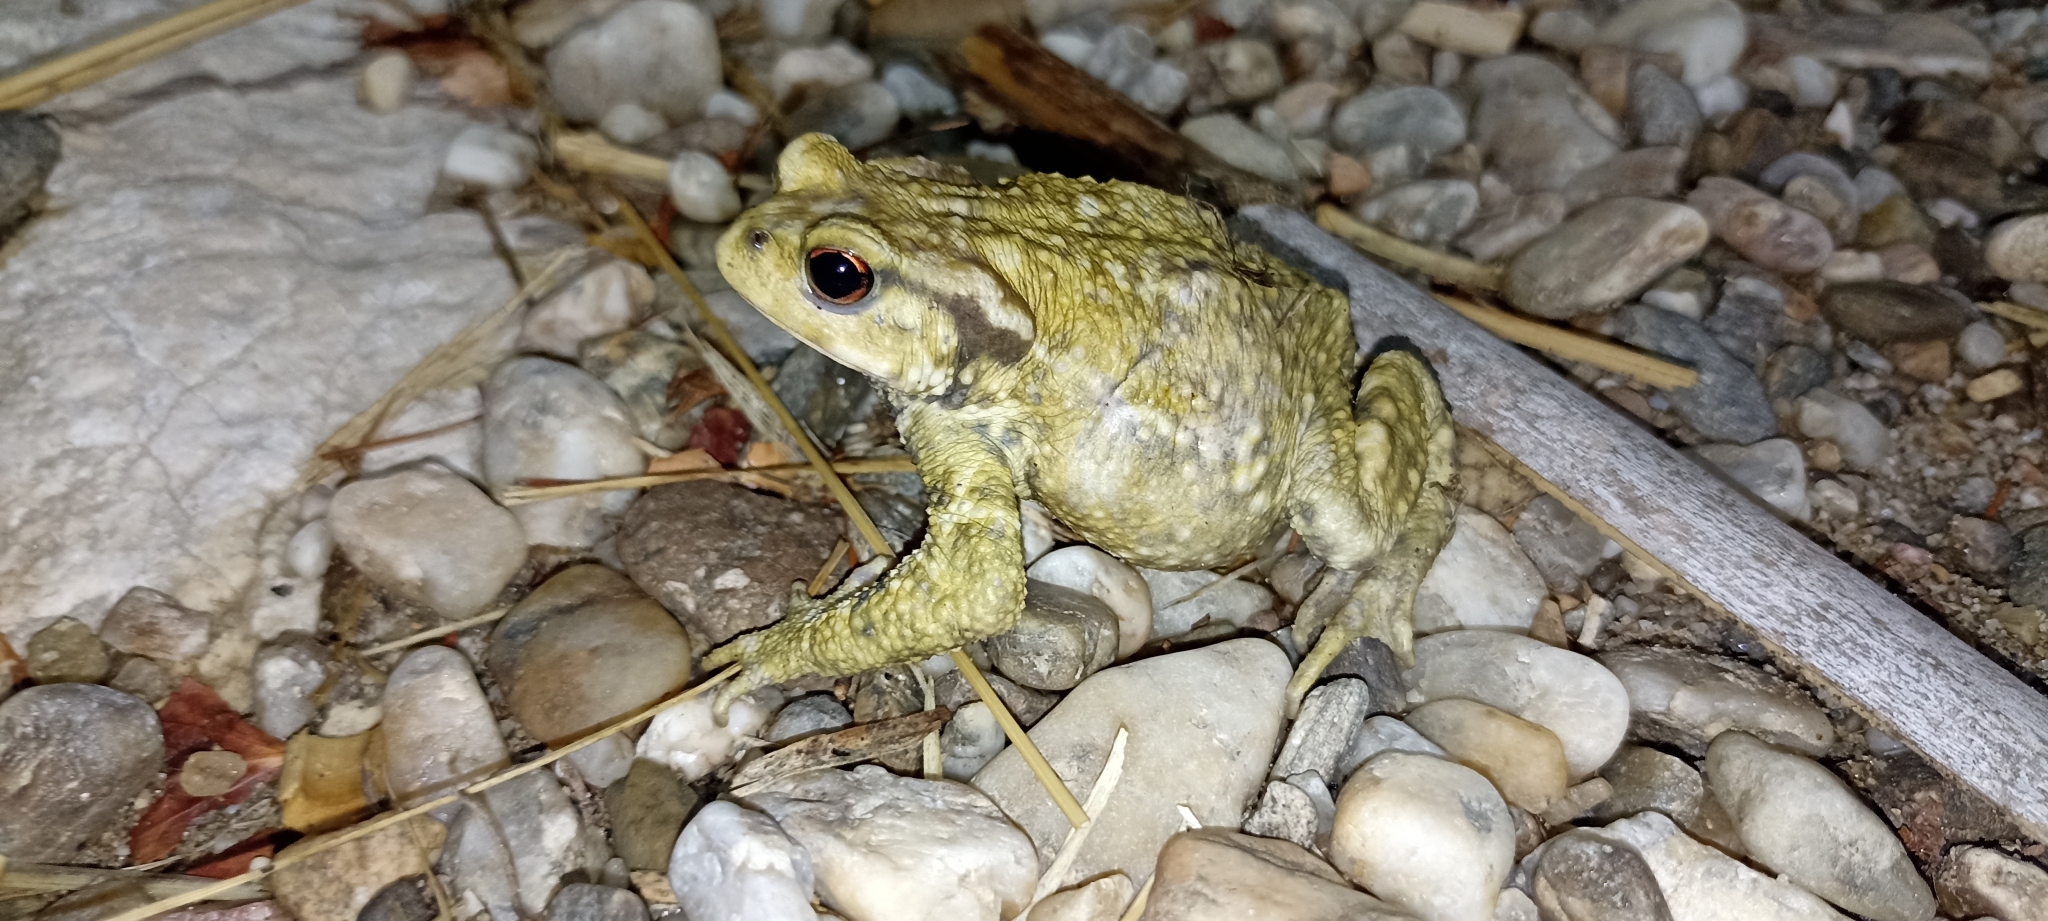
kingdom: Animalia
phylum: Chordata
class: Amphibia
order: Anura
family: Bufonidae
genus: Bufo
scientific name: Bufo spinosus
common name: Western common toad
